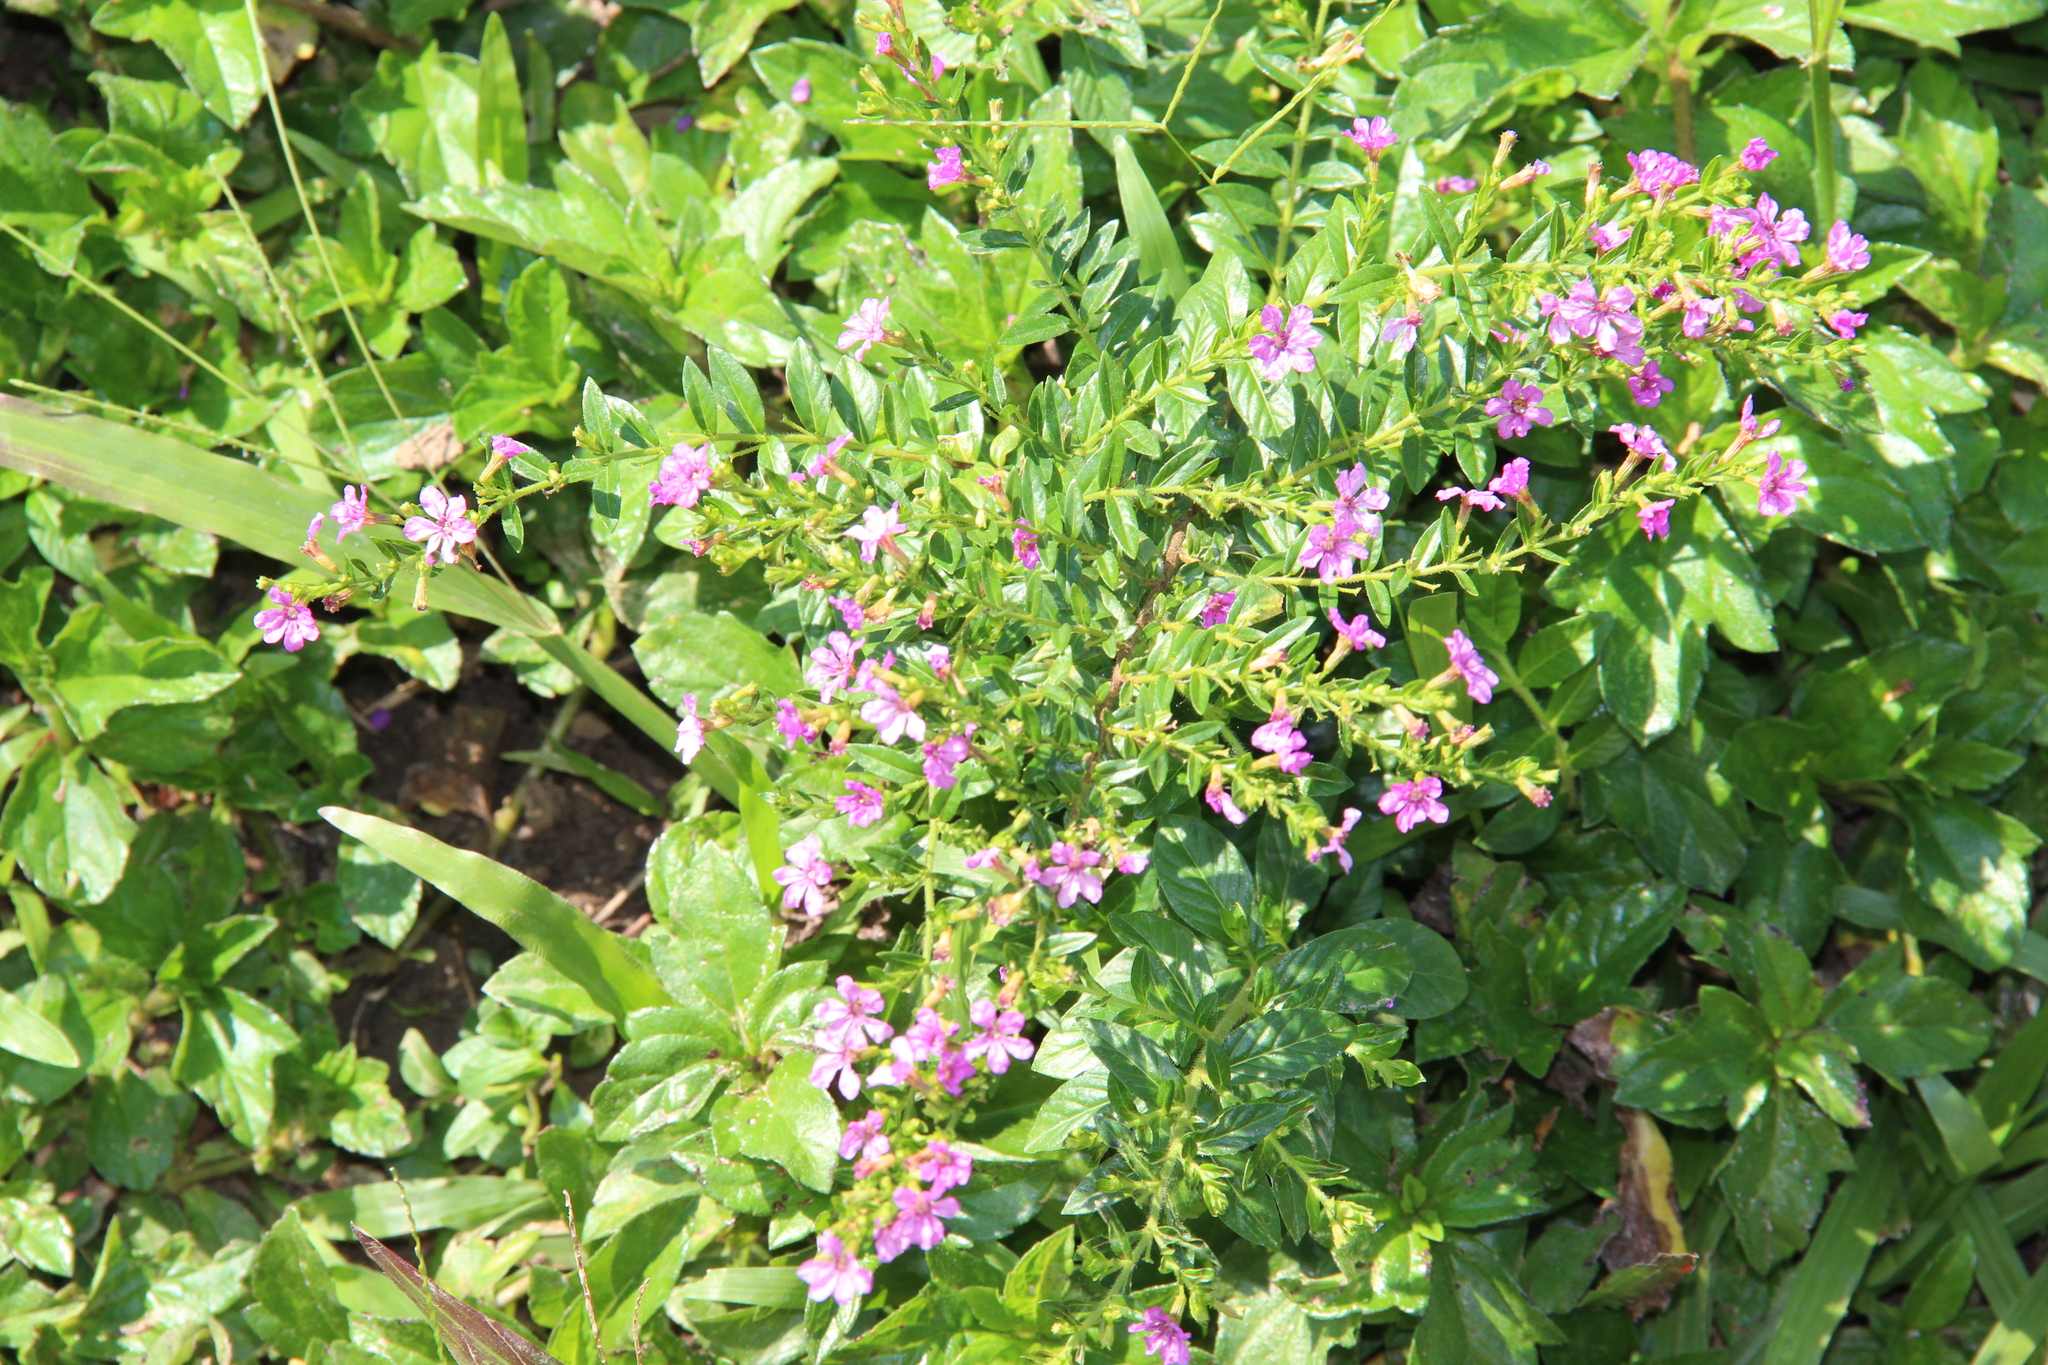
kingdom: Plantae
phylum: Tracheophyta
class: Magnoliopsida
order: Myrtales
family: Lythraceae
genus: Cuphea
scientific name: Cuphea hyssopifolia
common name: False heather
